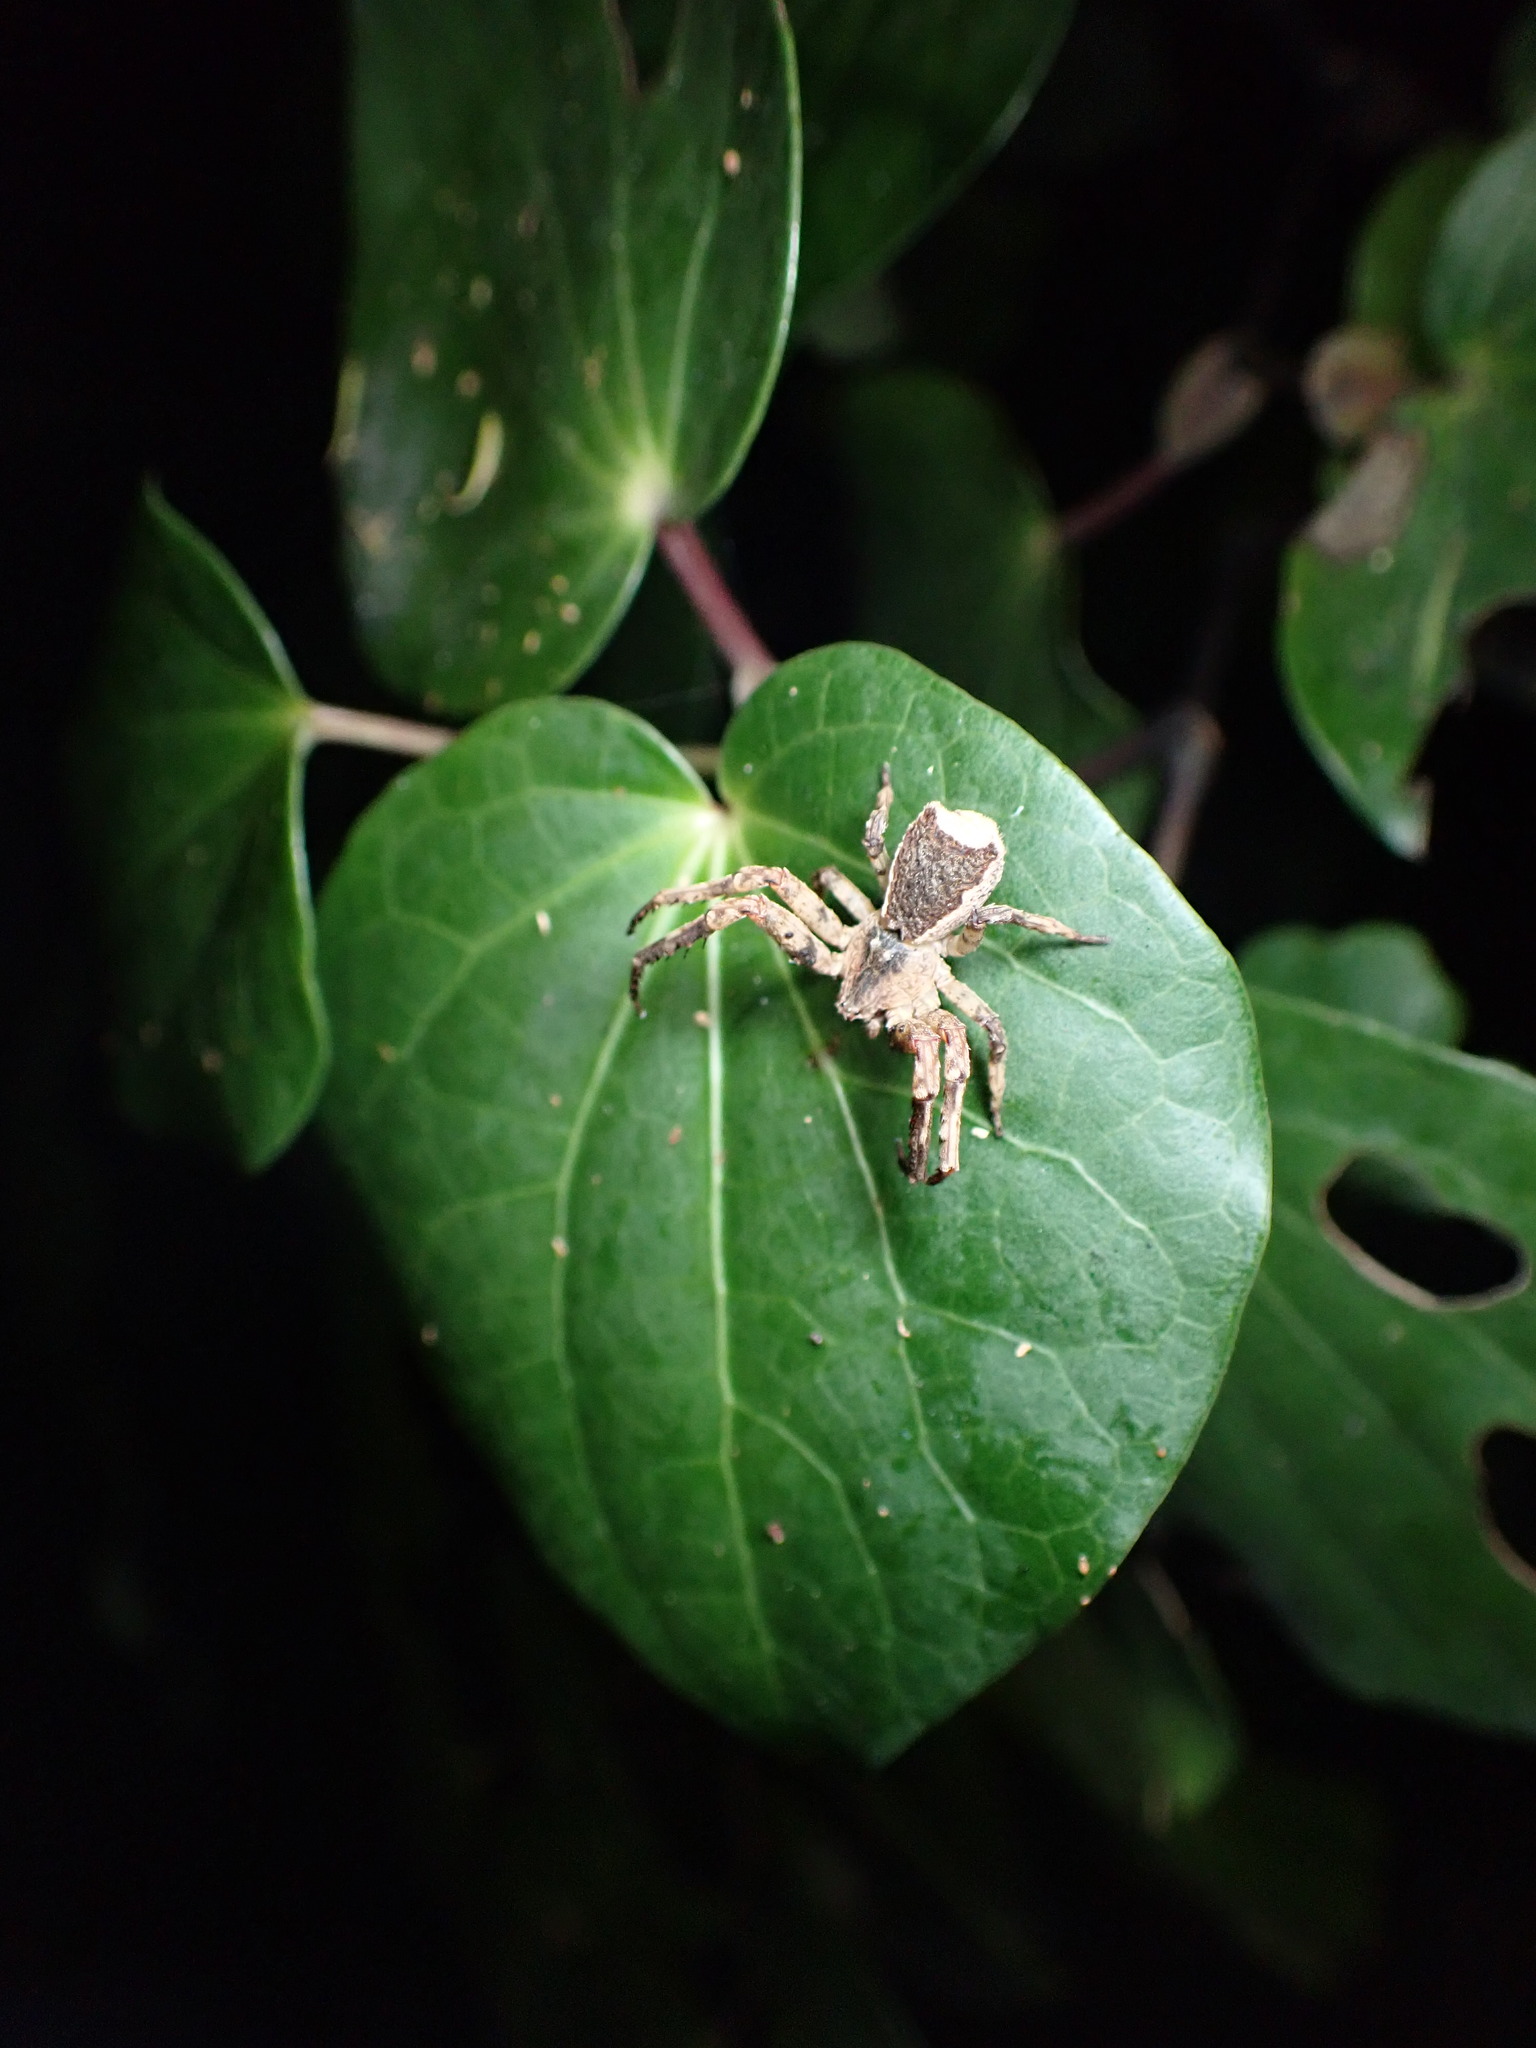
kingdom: Animalia
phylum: Arthropoda
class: Arachnida
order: Araneae
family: Thomisidae
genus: Sidymella
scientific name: Sidymella angularis
